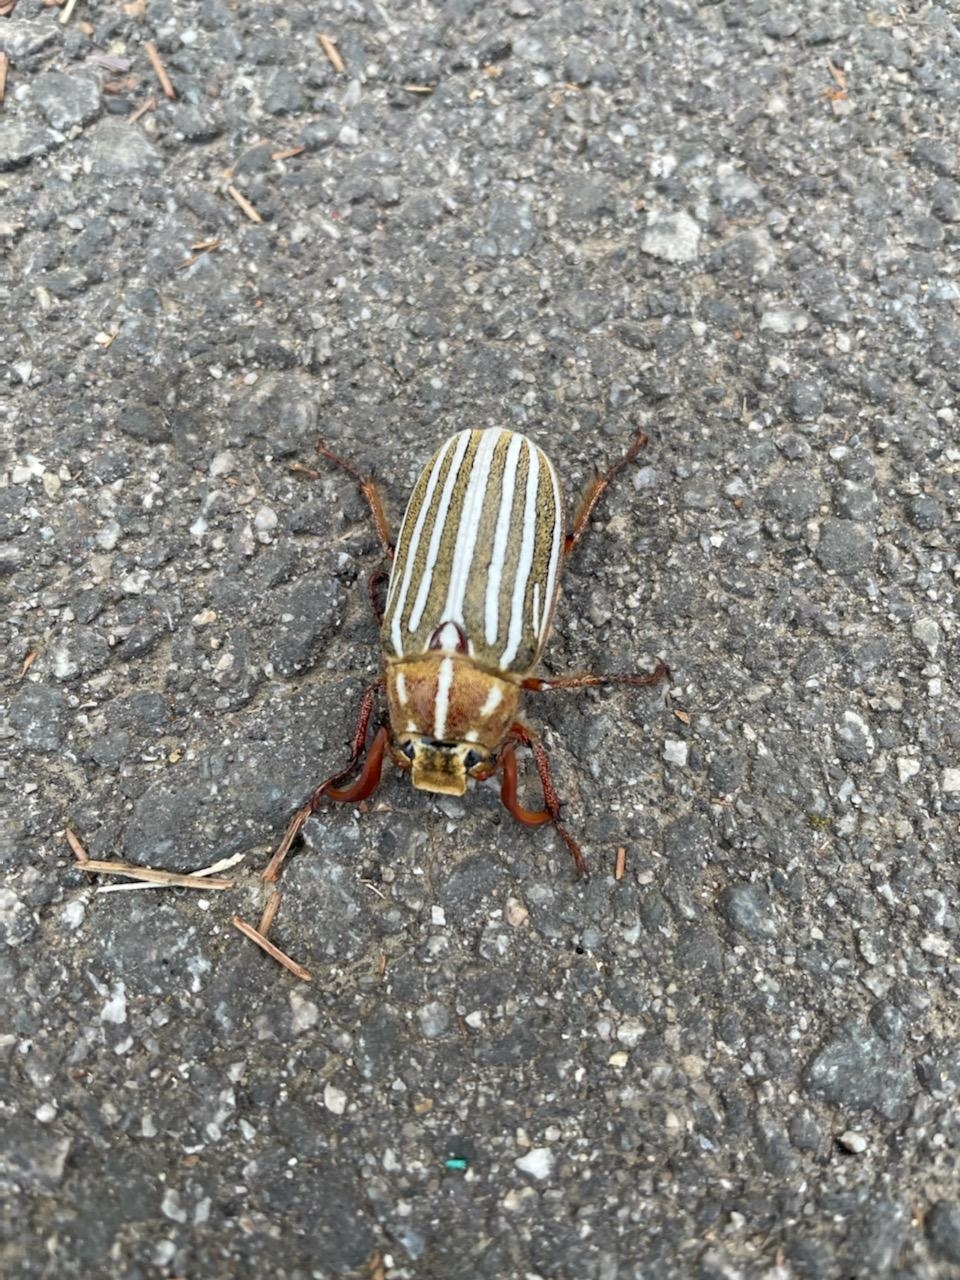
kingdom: Animalia
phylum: Arthropoda
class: Insecta
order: Coleoptera
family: Scarabaeidae
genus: Polyphylla
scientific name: Polyphylla decemlineata
